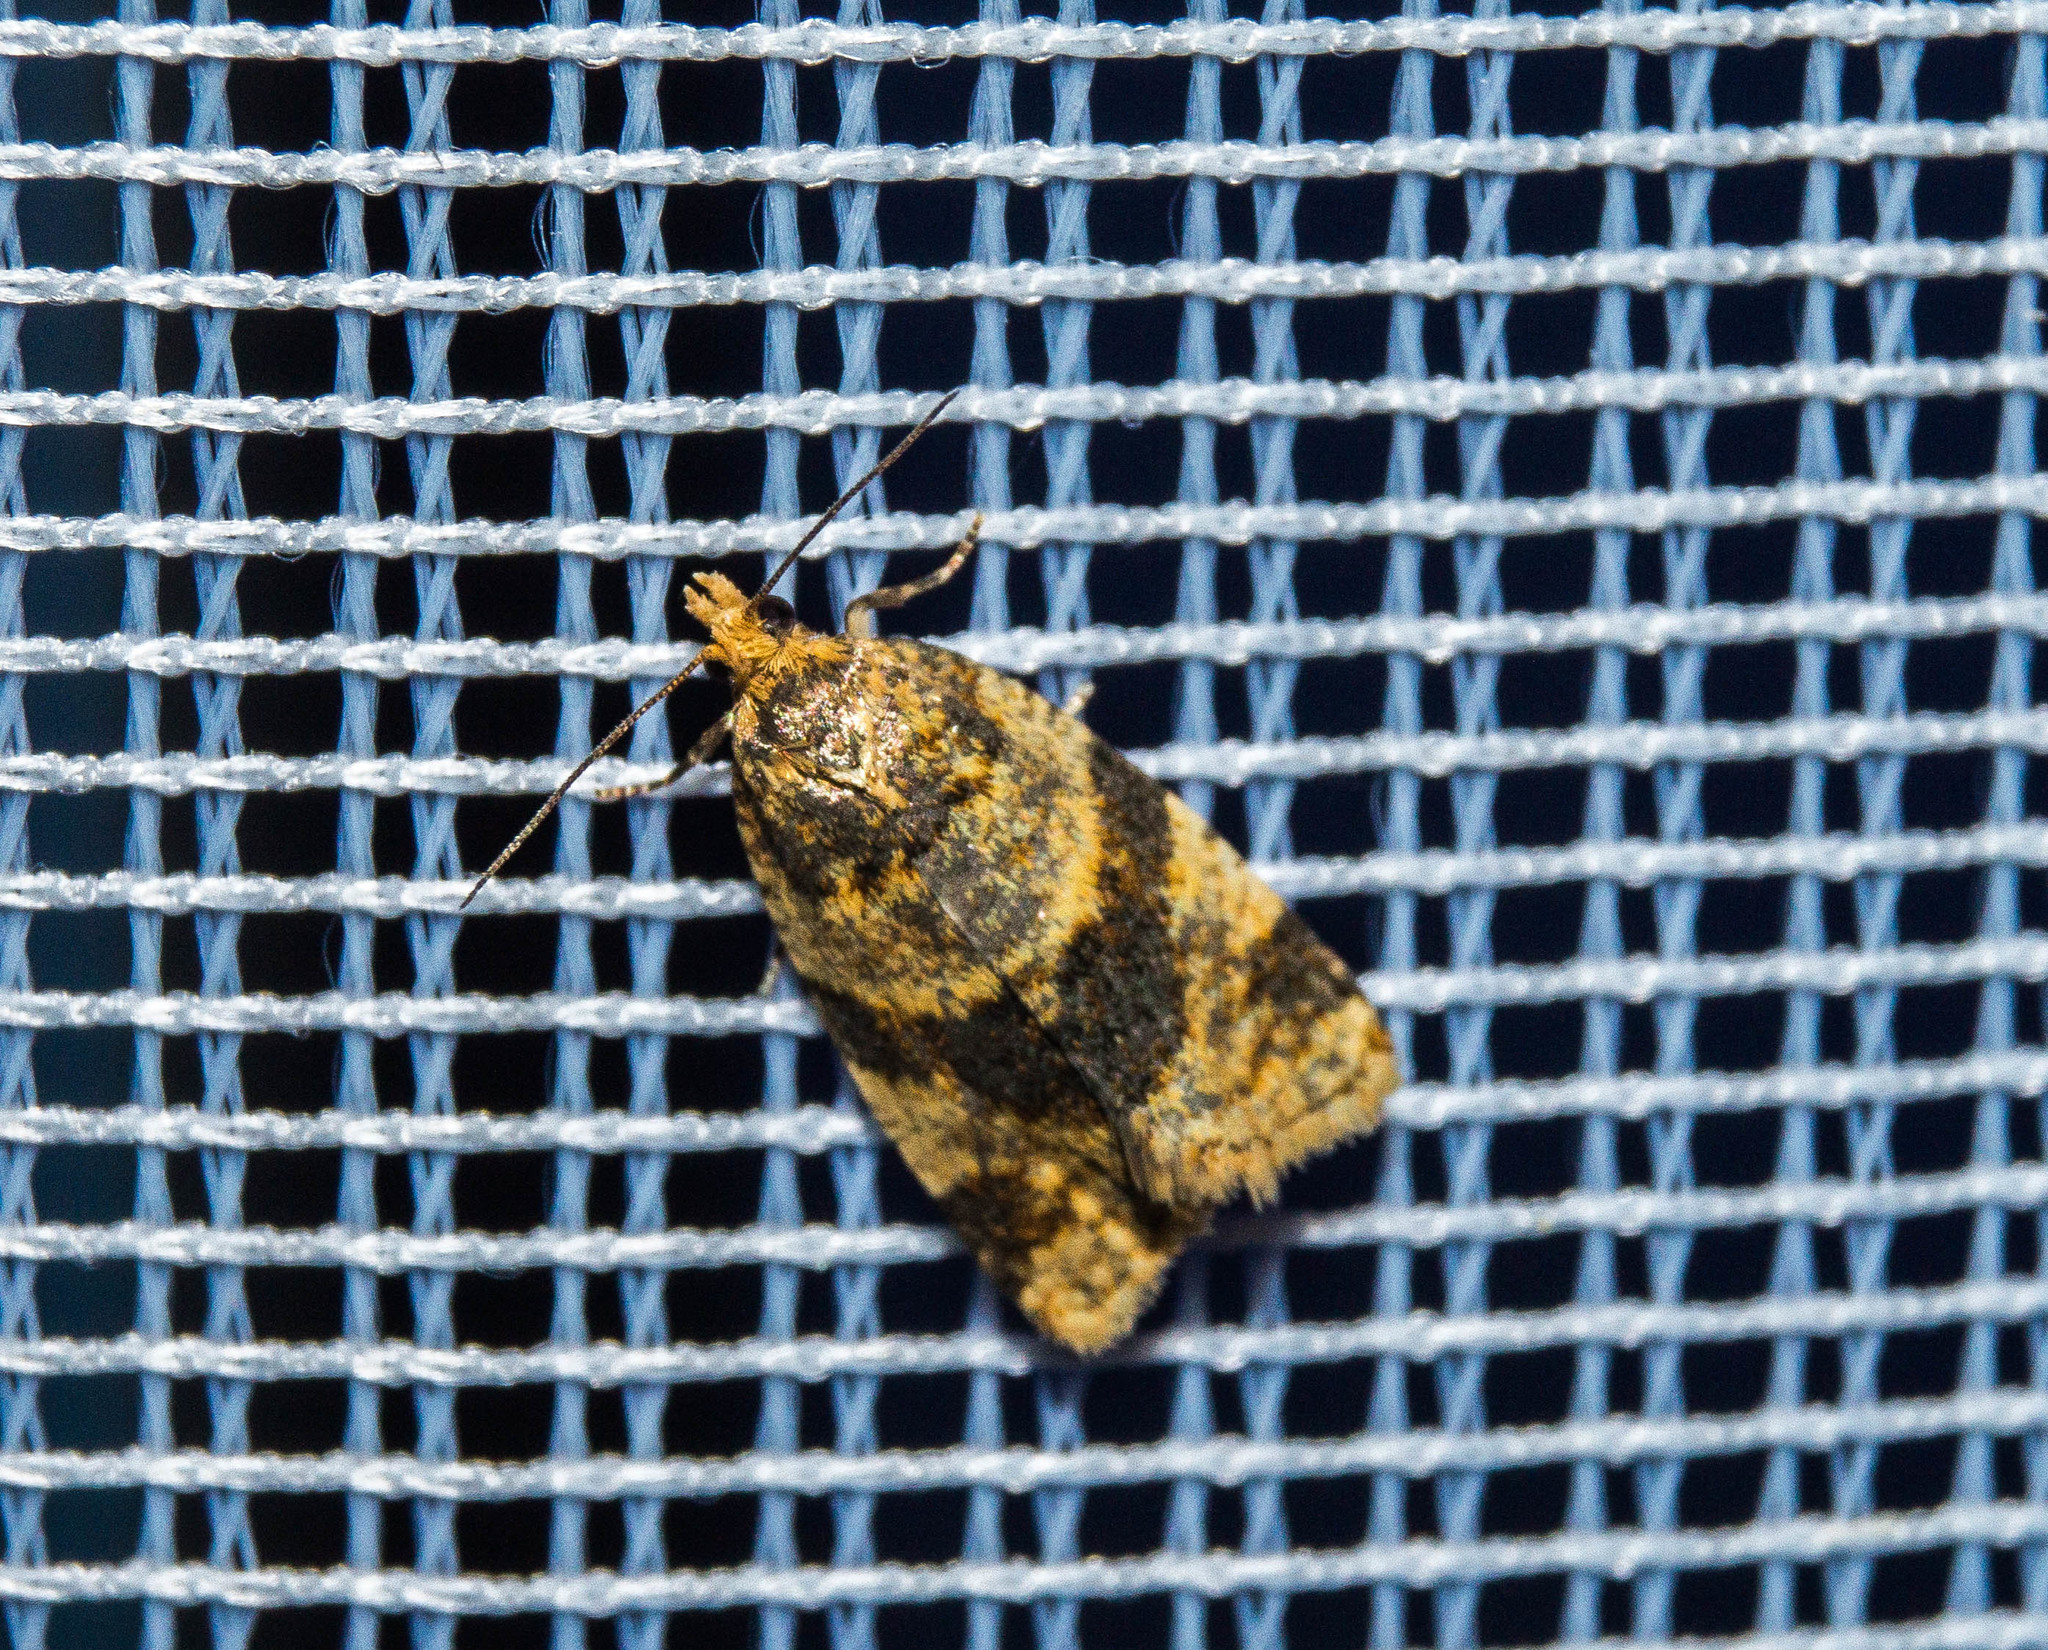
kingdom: Animalia
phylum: Arthropoda
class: Insecta
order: Lepidoptera
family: Tortricidae
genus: Epagoge
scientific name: Epagoge grotiana
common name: Brown-barred twist
